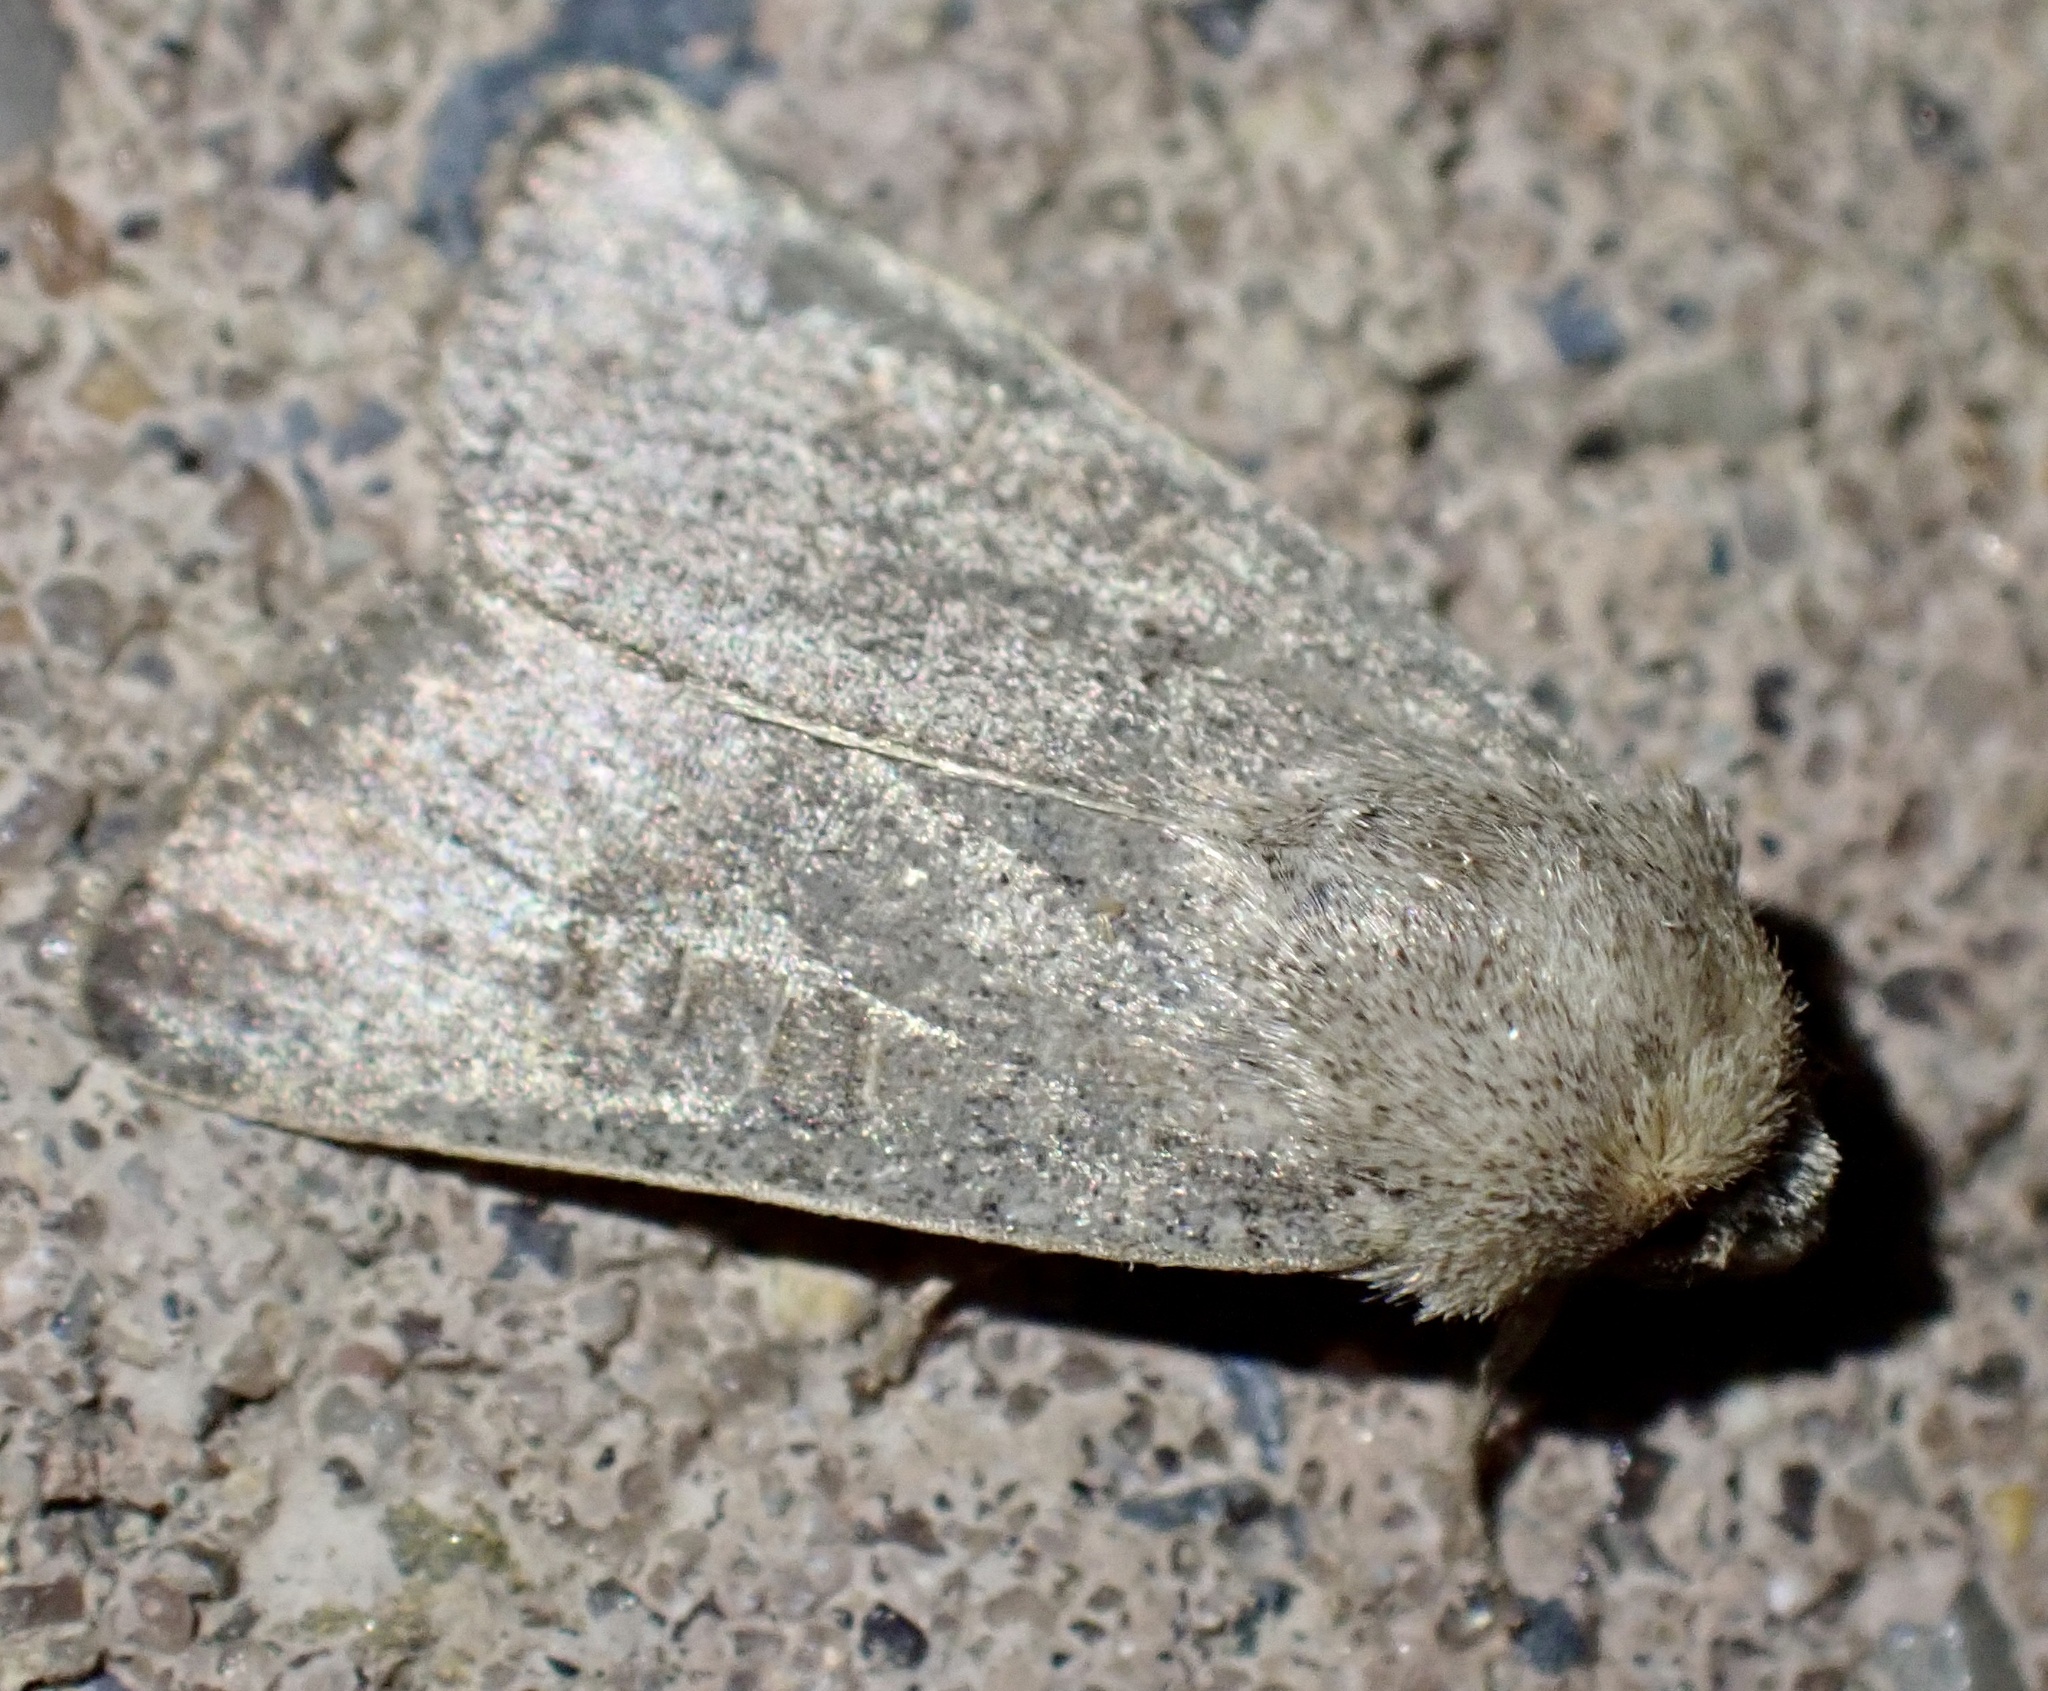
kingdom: Animalia
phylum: Arthropoda
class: Insecta
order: Lepidoptera
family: Noctuidae
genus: Hoplodrina
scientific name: Hoplodrina ambigua
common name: Vine's rustic
